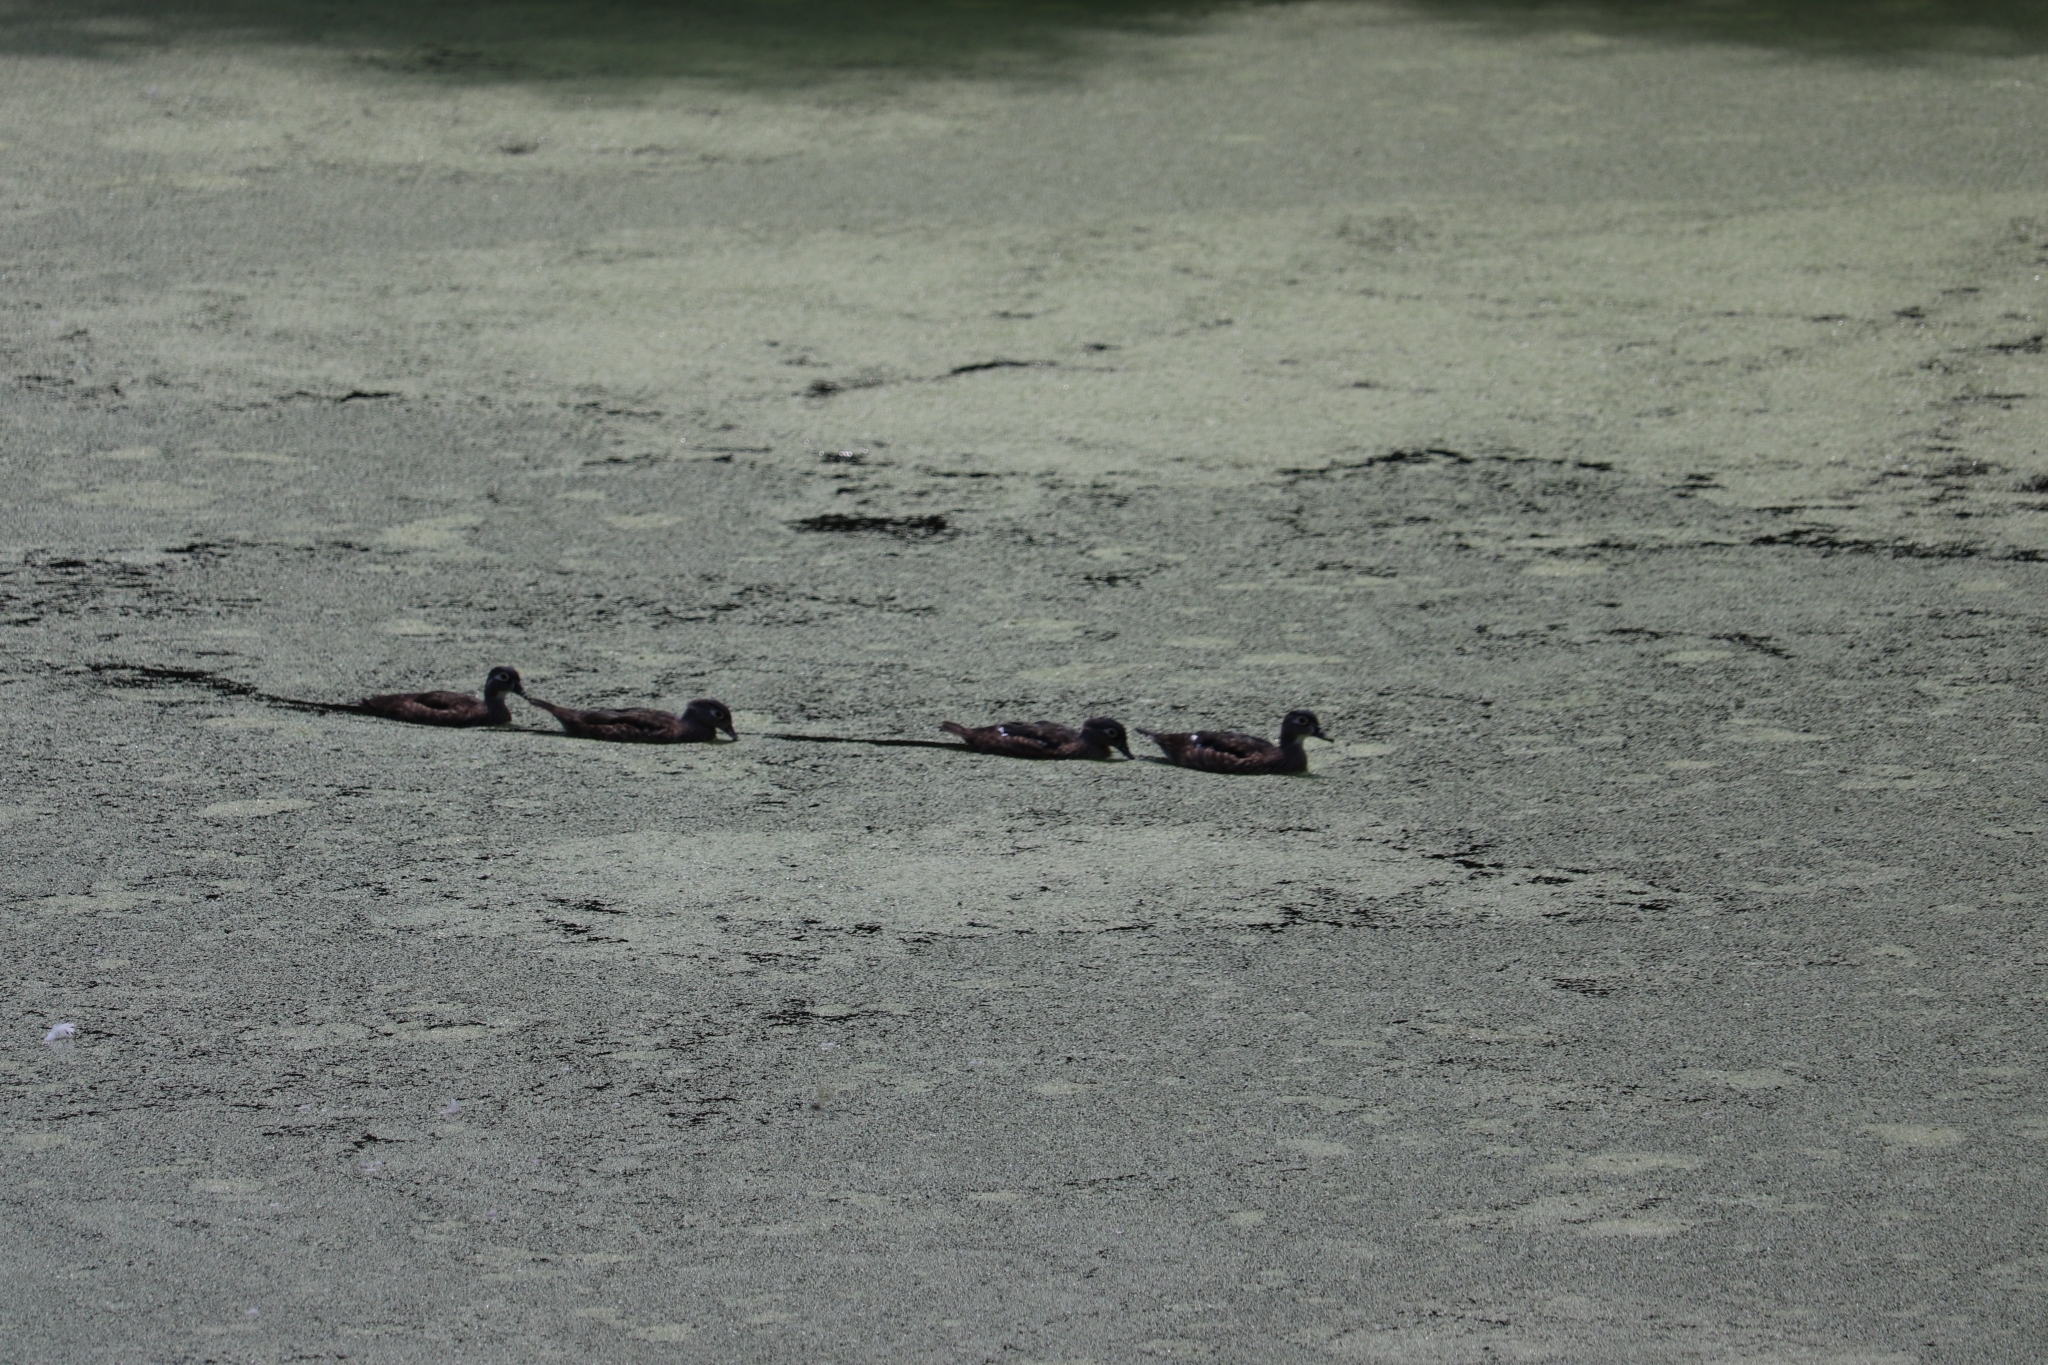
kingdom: Animalia
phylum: Chordata
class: Aves
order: Anseriformes
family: Anatidae
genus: Aix
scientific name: Aix sponsa
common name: Wood duck
